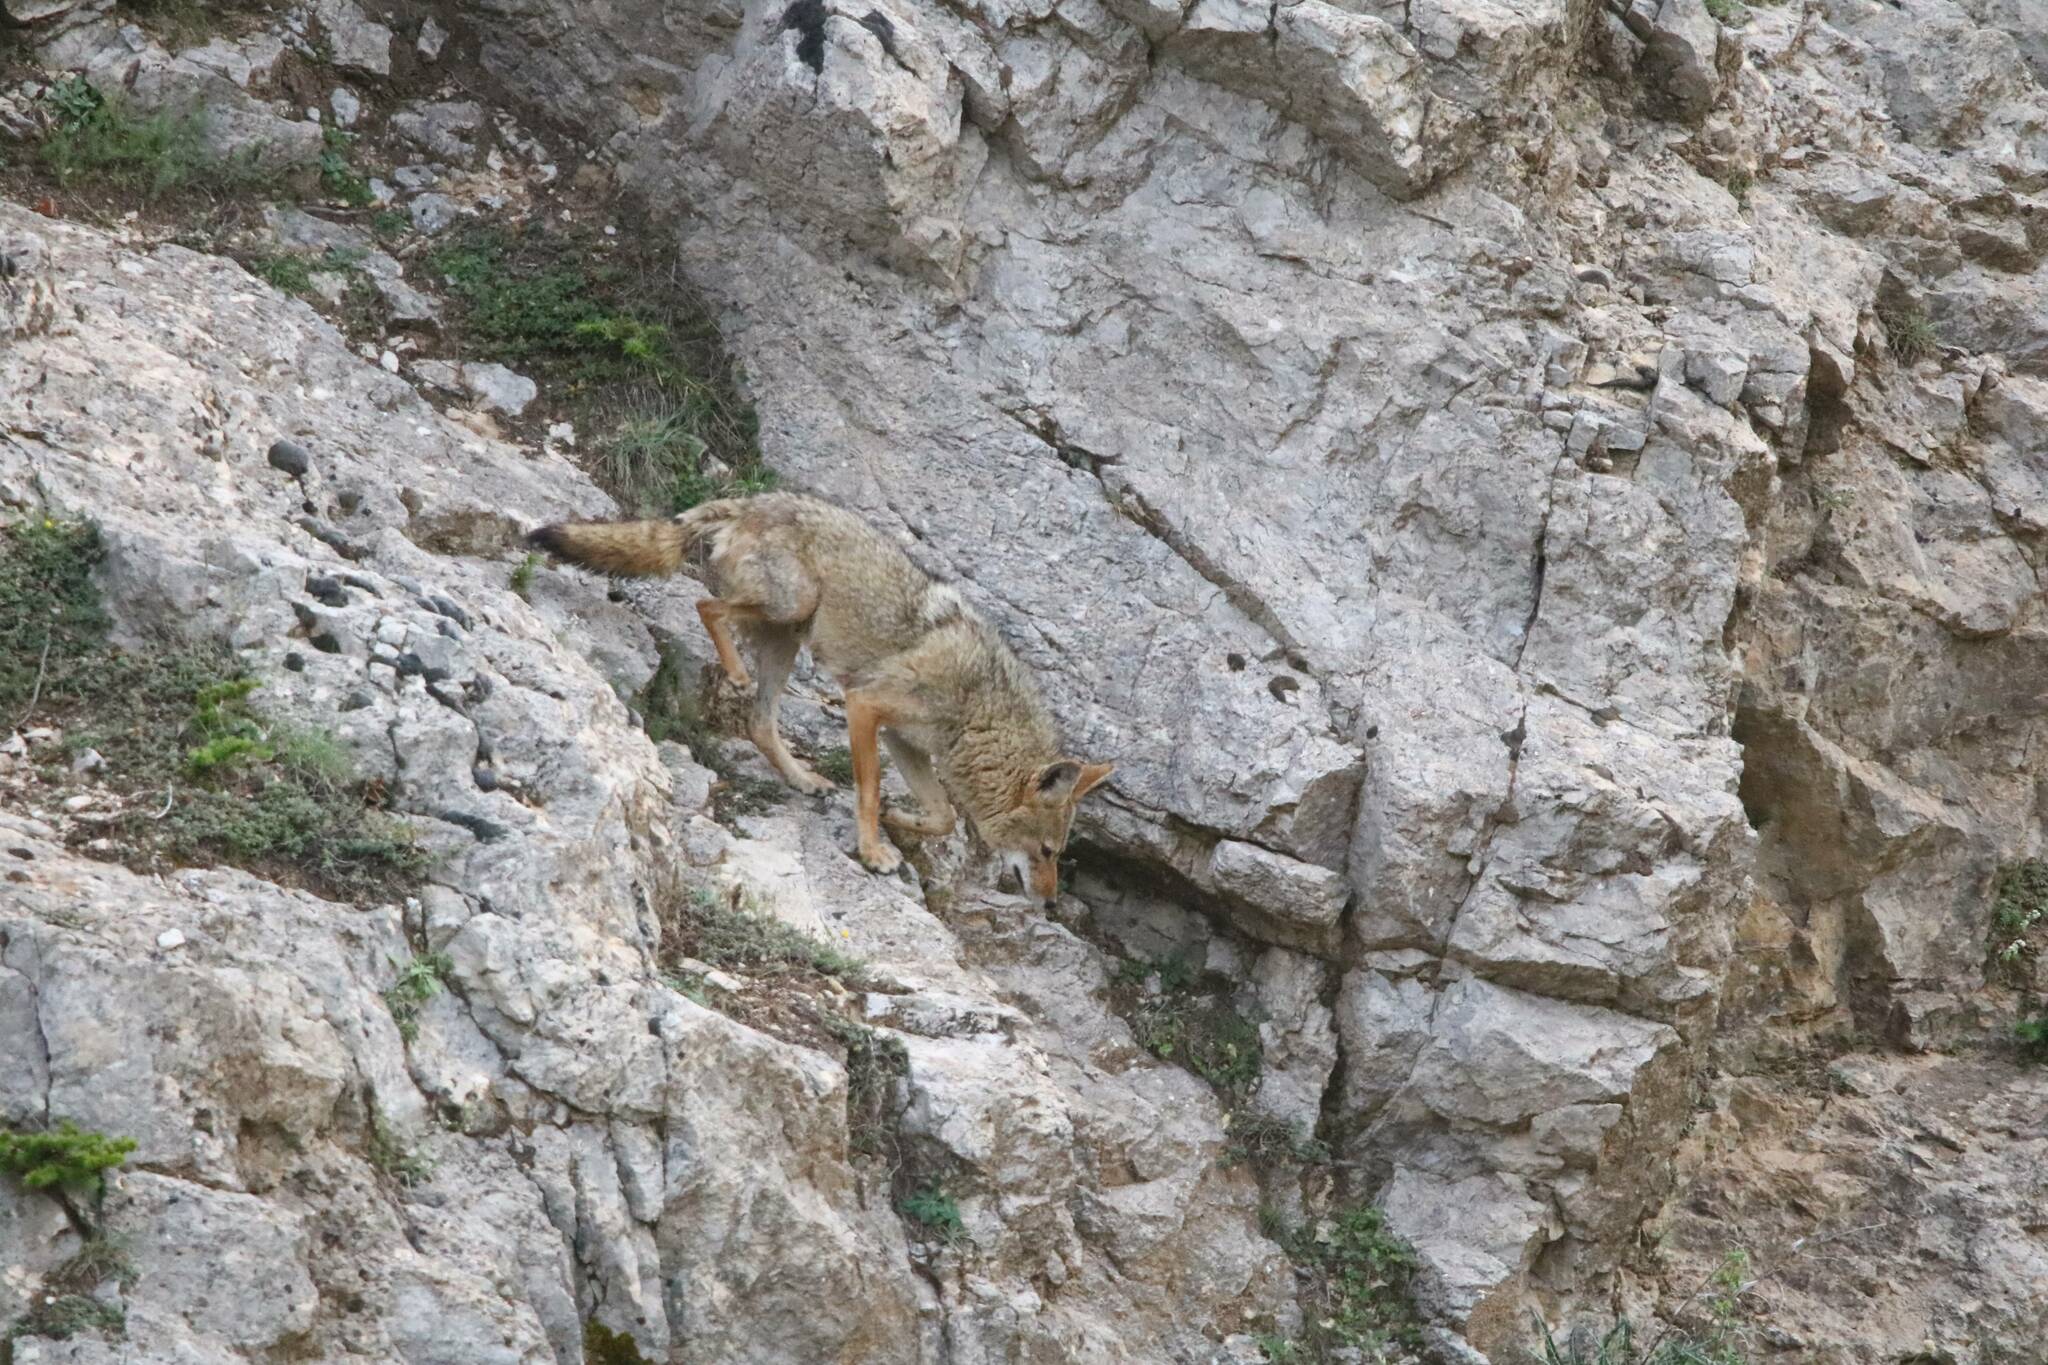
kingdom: Animalia
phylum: Chordata
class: Mammalia
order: Carnivora
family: Canidae
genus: Canis
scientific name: Canis lupaster
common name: African golden wolf
